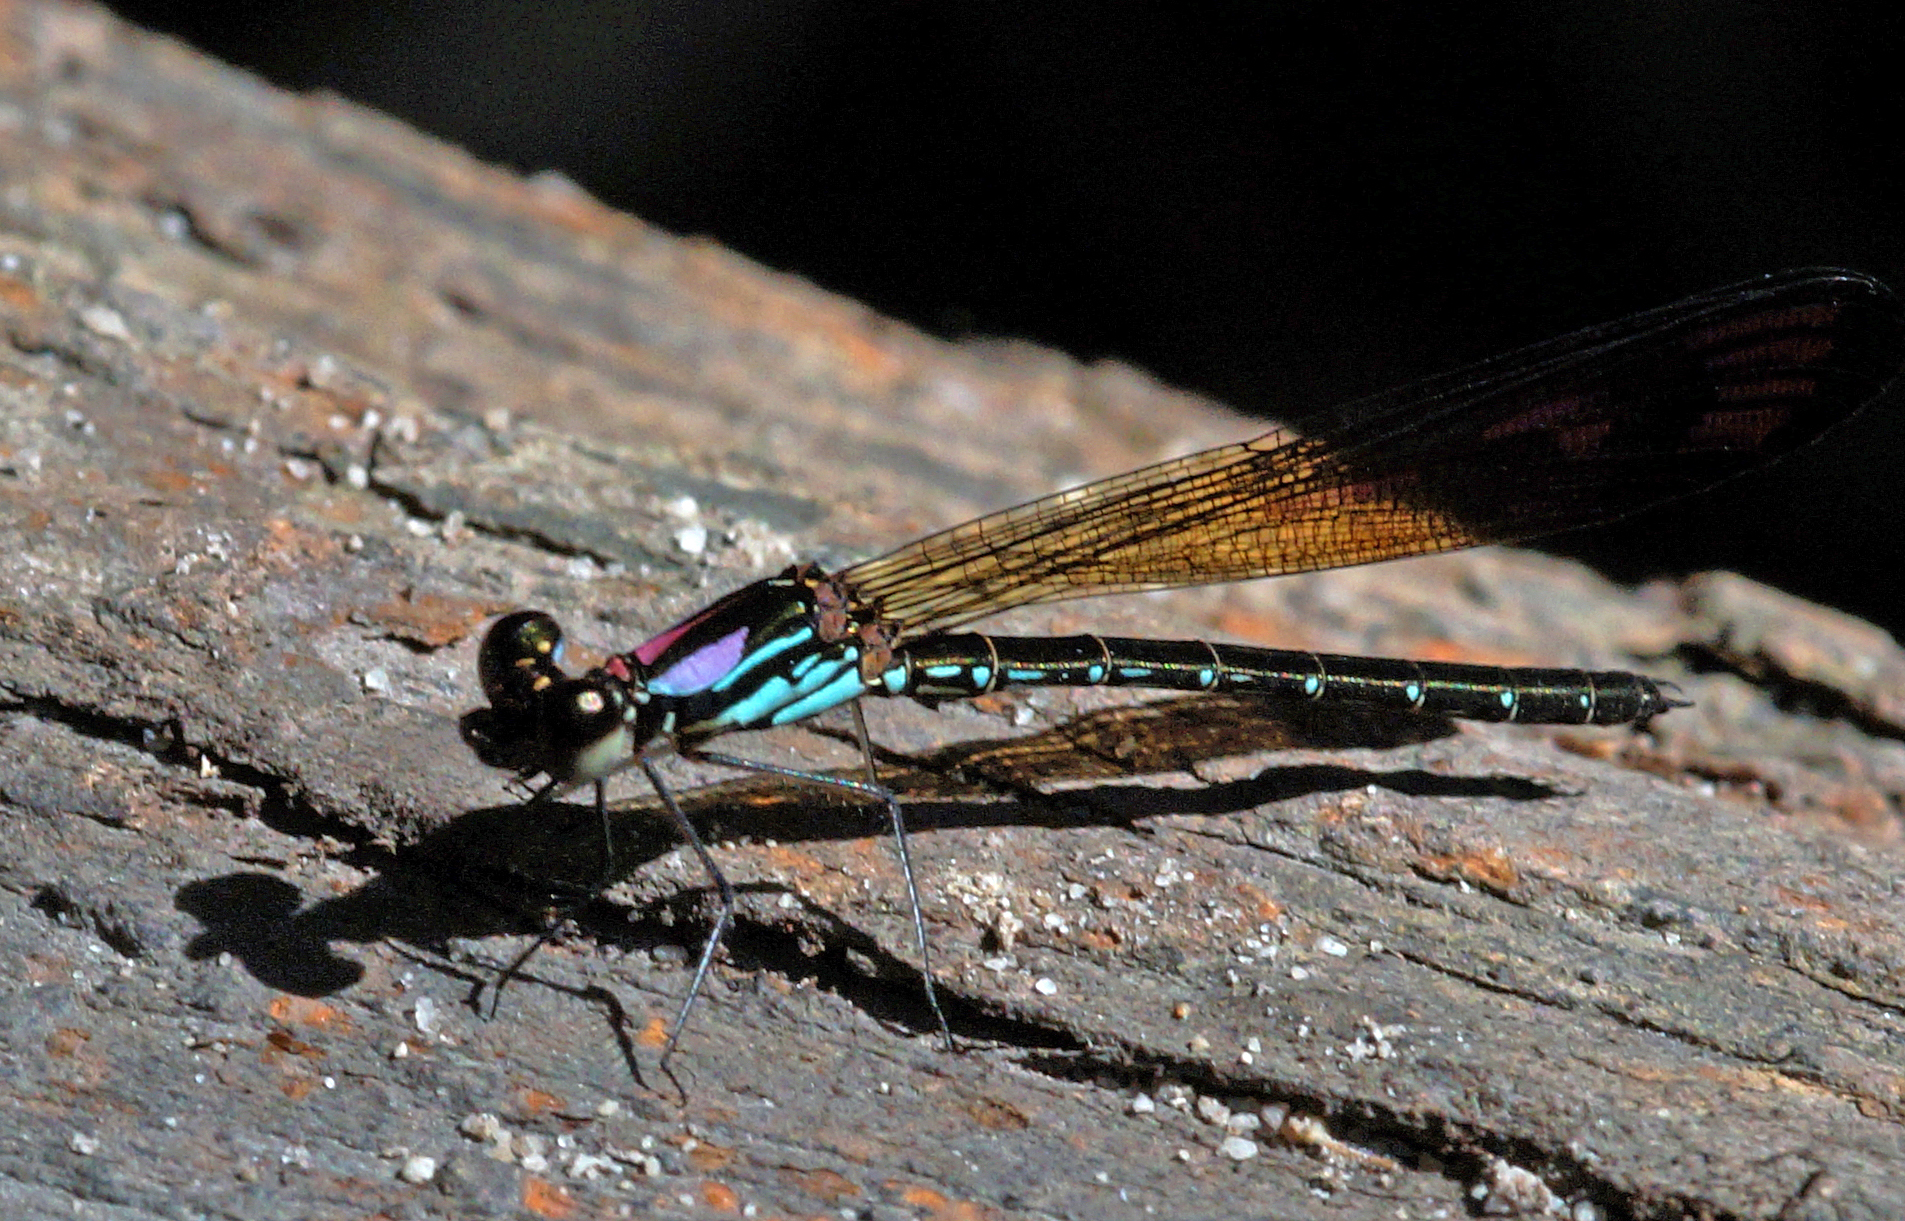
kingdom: Animalia
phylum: Arthropoda
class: Insecta
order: Odonata
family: Chlorocyphidae
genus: Heliocypha
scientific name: Heliocypha biforata
